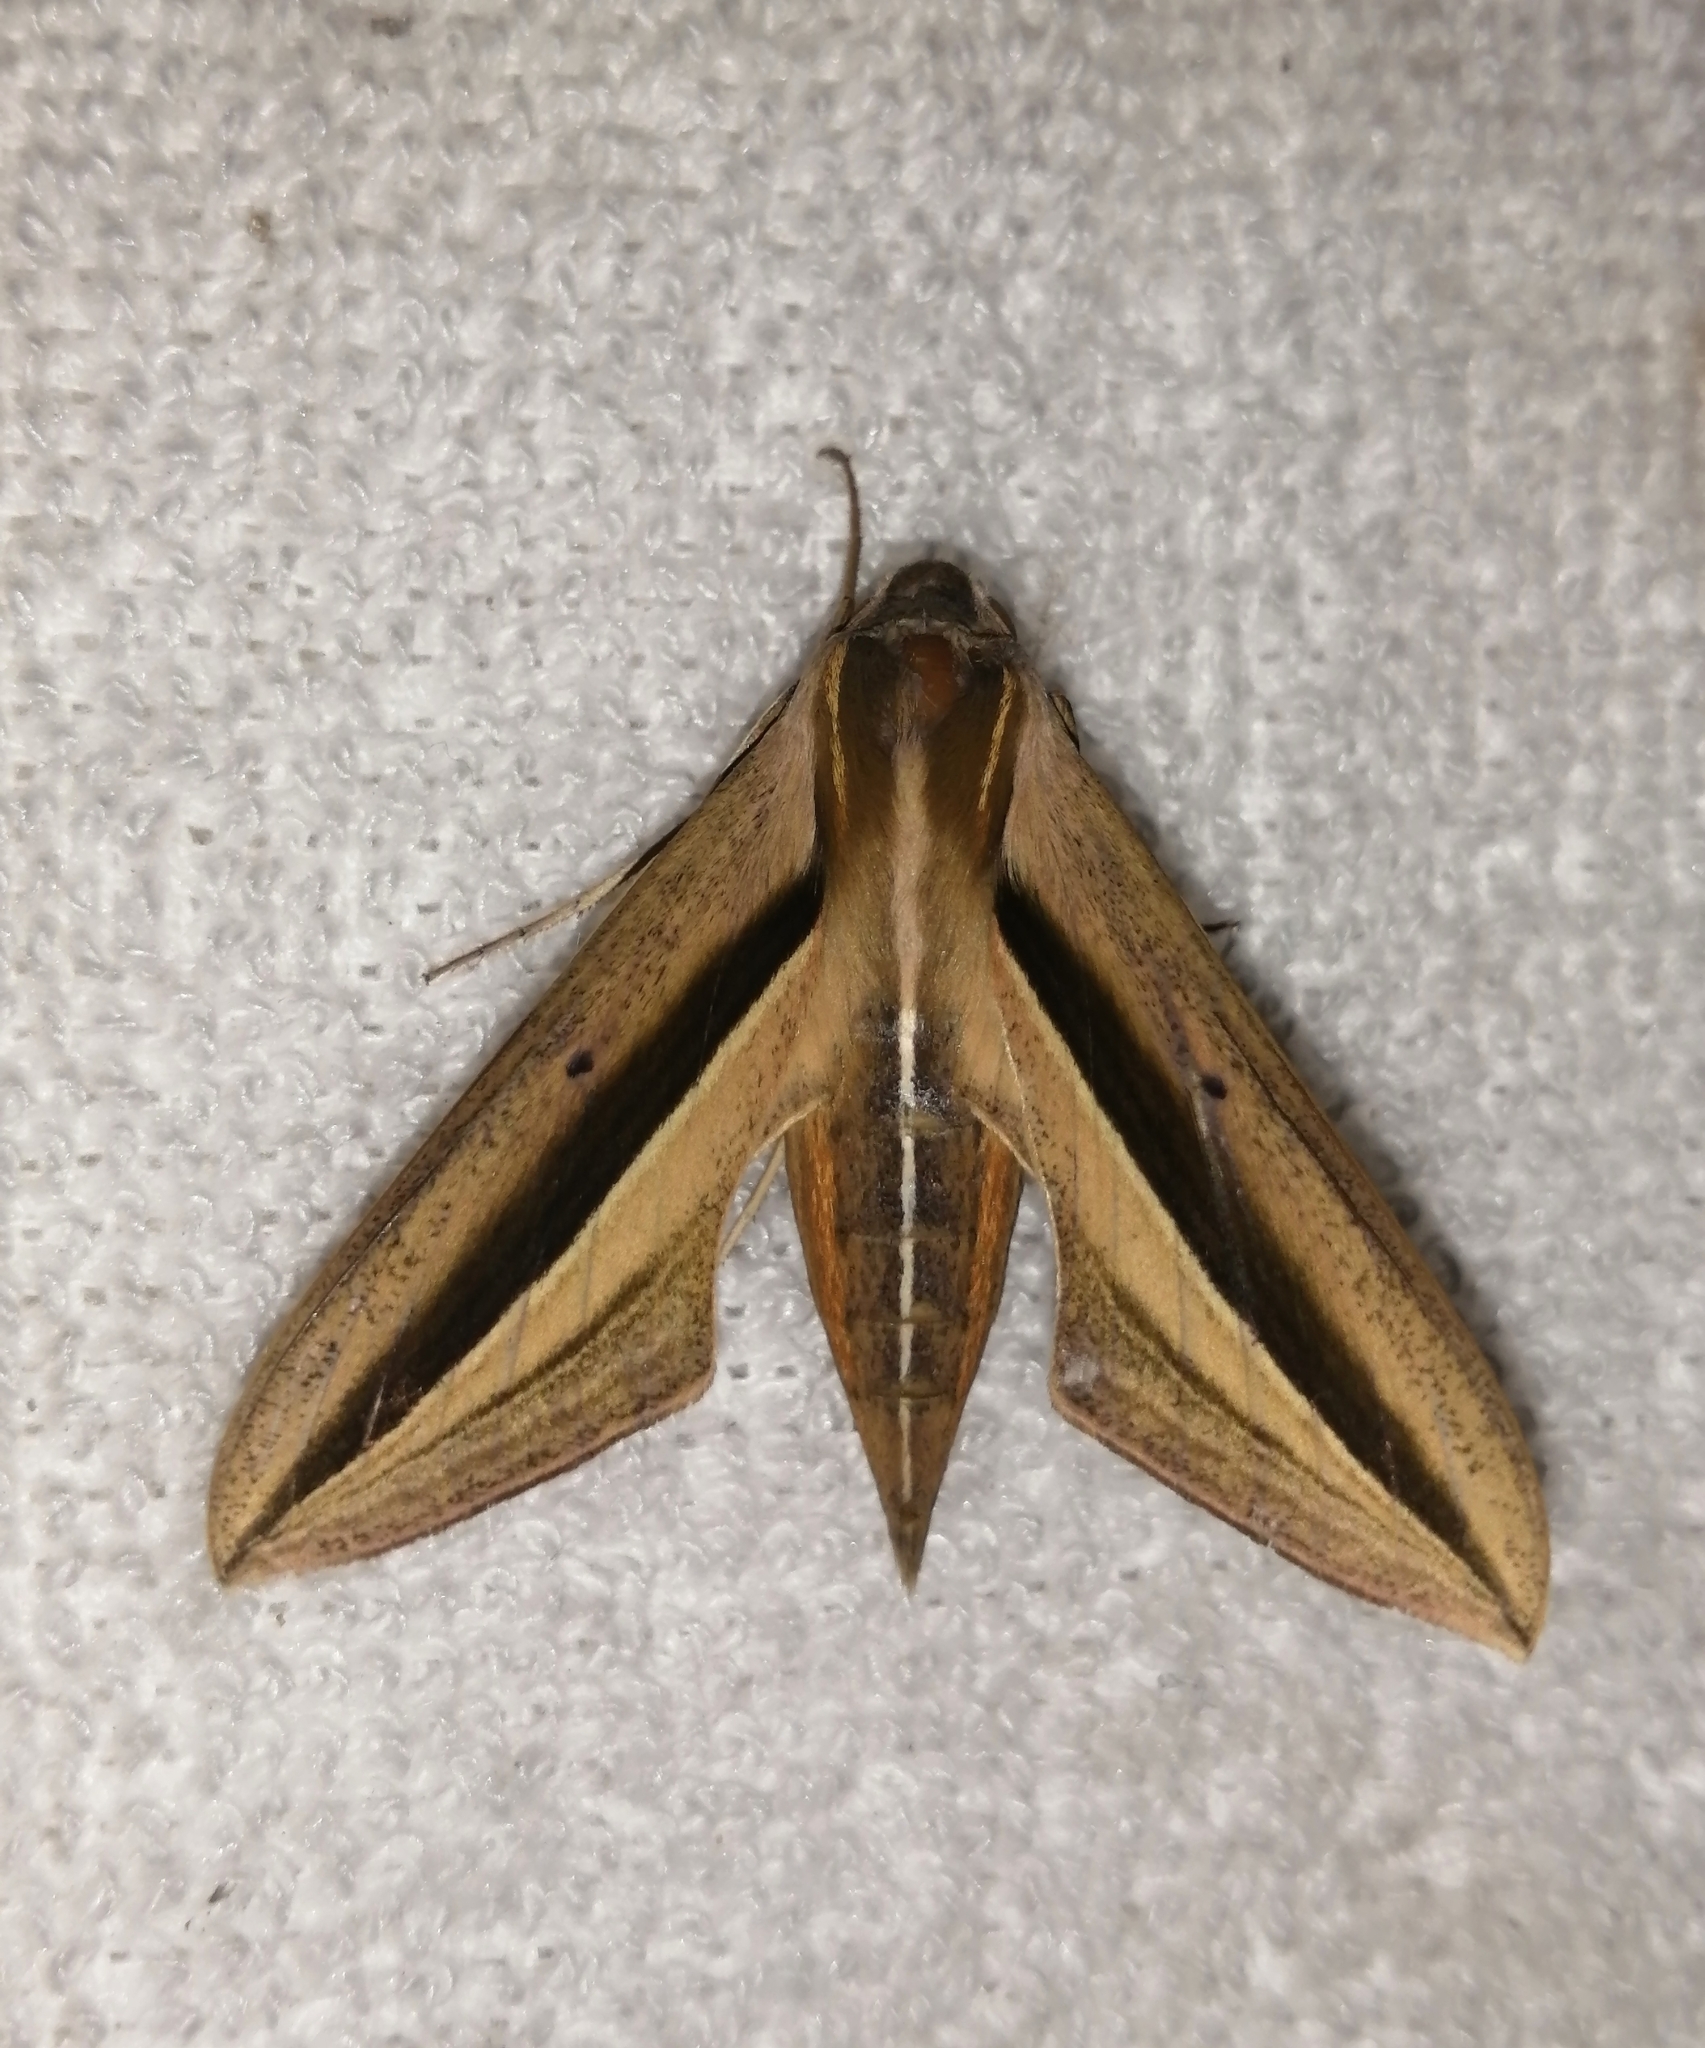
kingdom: Animalia
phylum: Arthropoda
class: Insecta
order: Lepidoptera
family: Sphingidae
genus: Theretra
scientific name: Theretra silhetensis
